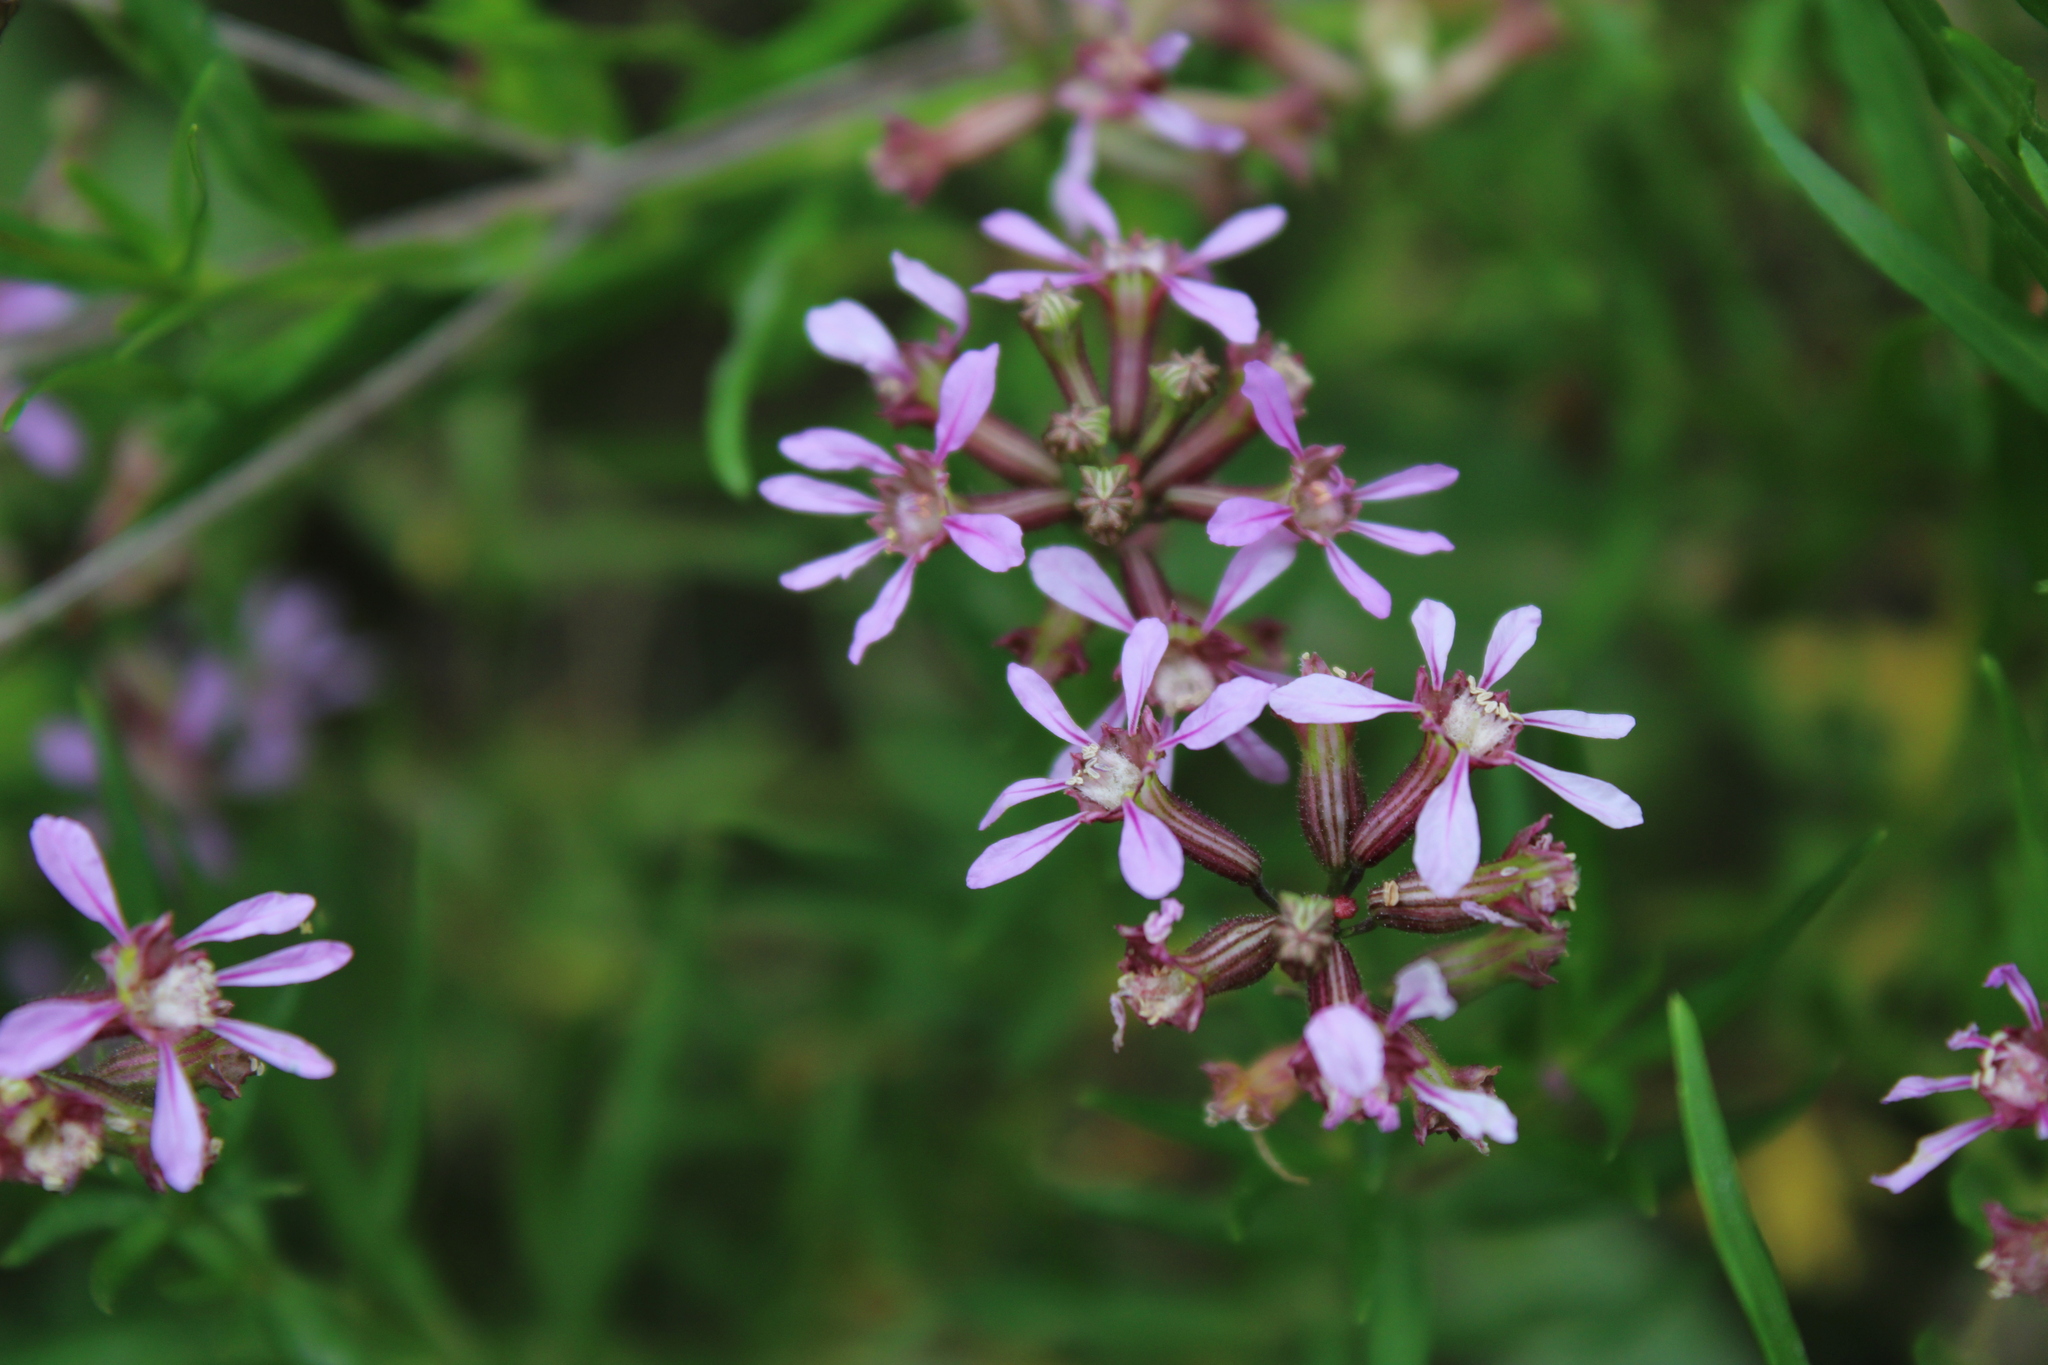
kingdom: Plantae
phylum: Tracheophyta
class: Magnoliopsida
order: Myrtales
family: Lythraceae
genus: Cuphea
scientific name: Cuphea fruticosa
